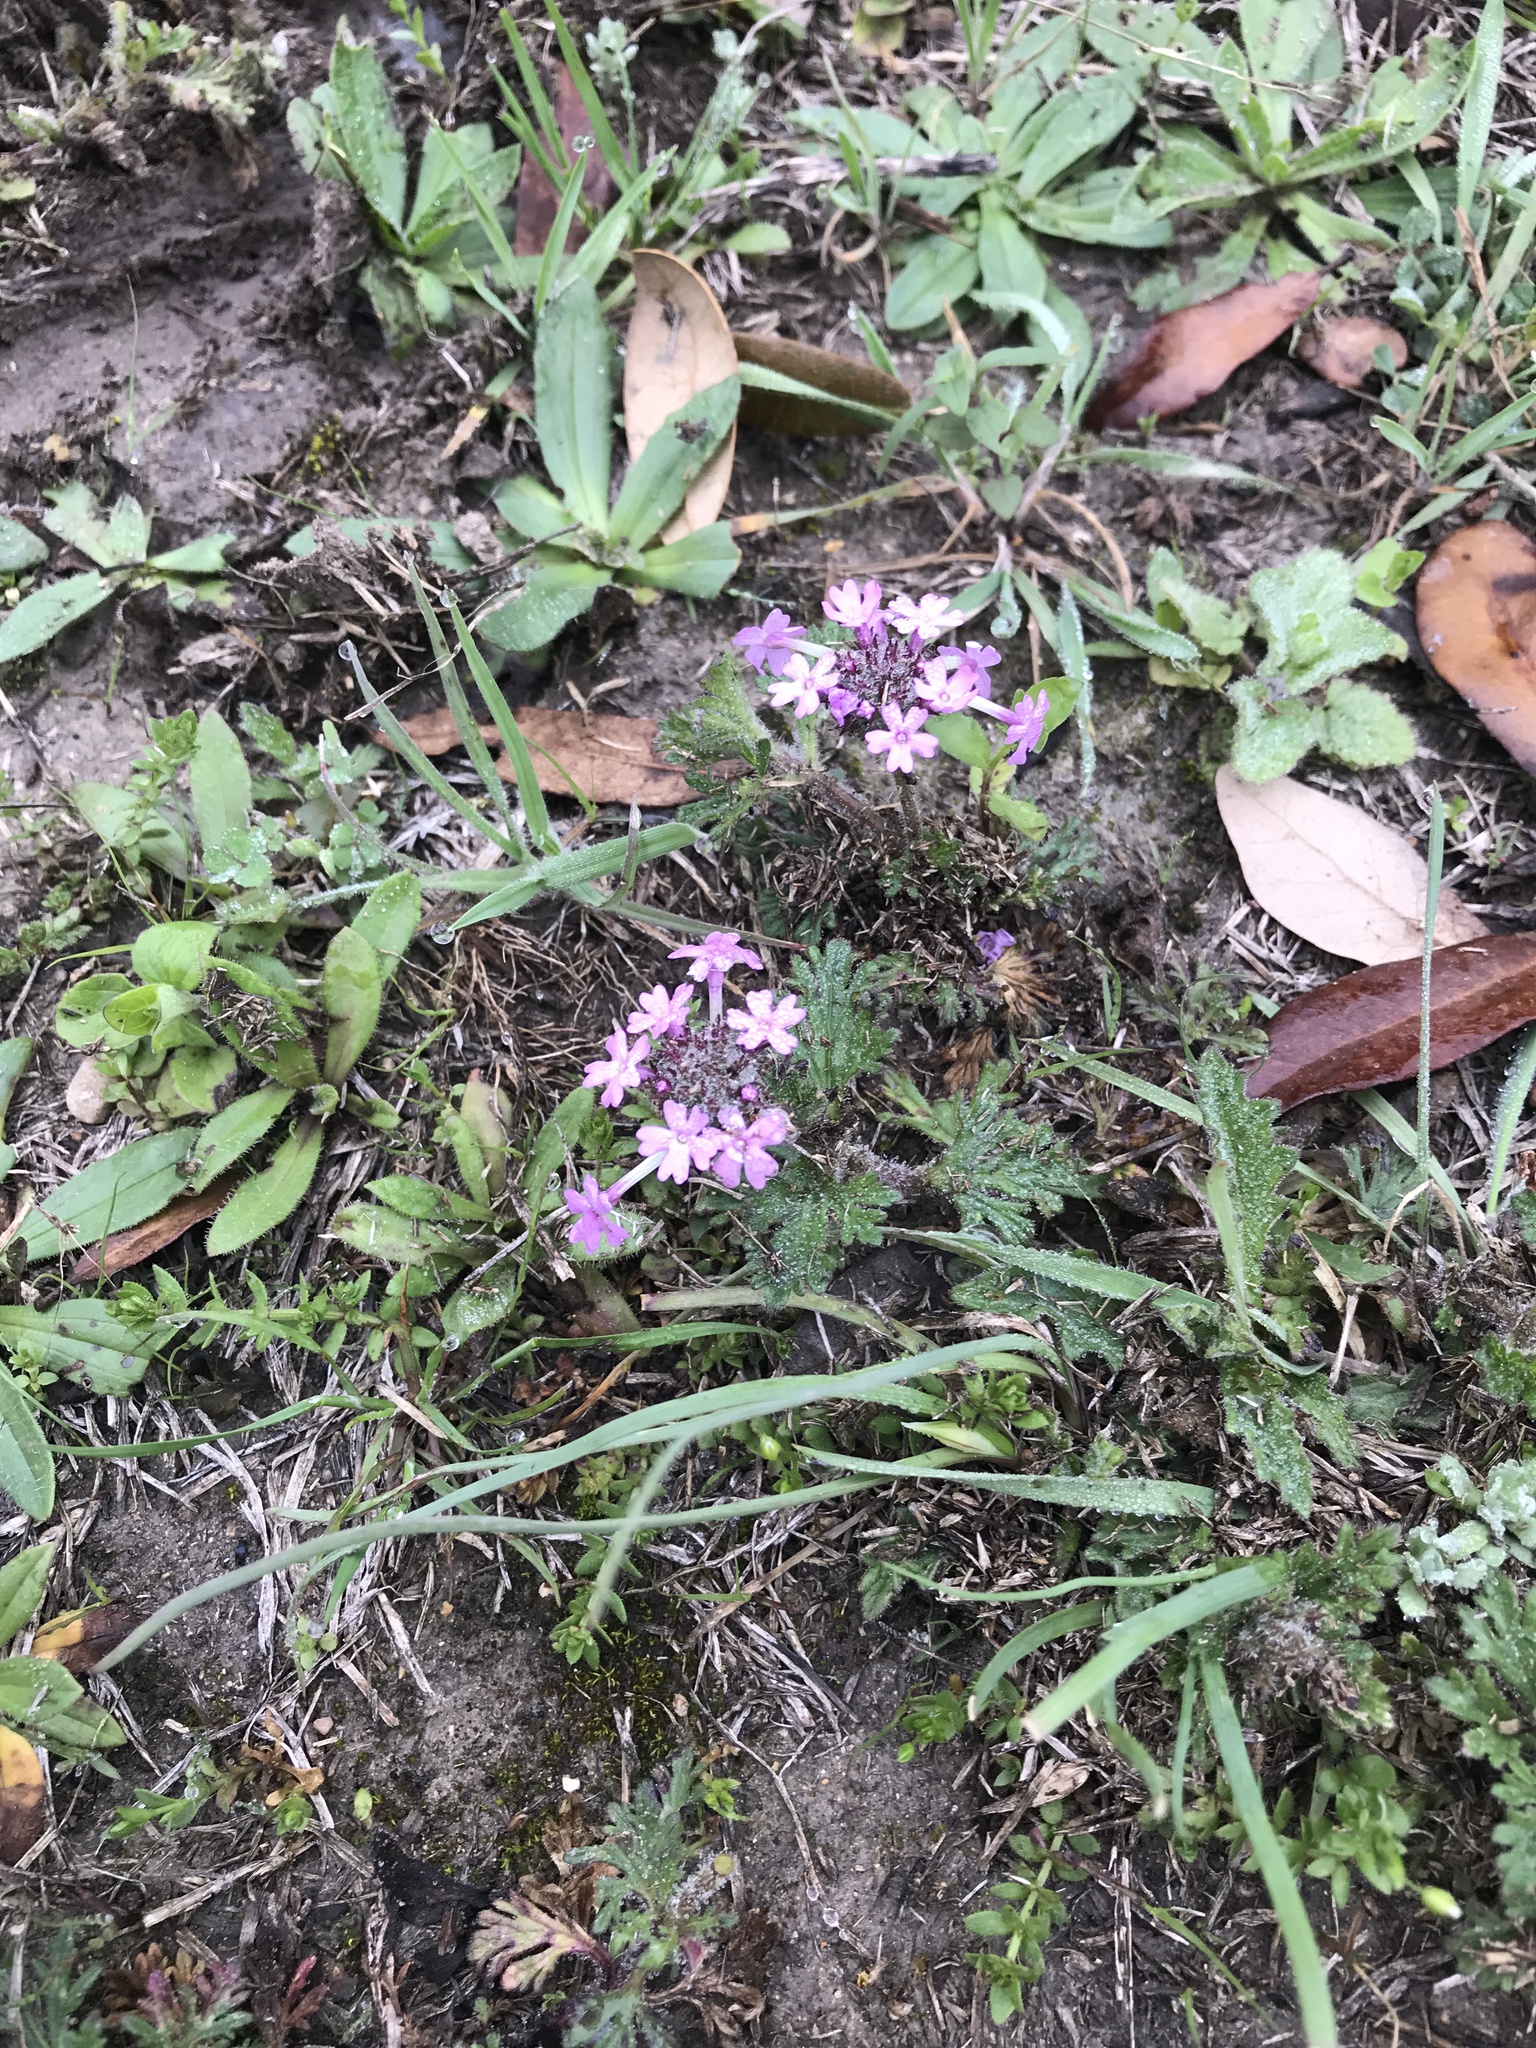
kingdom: Plantae
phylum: Tracheophyta
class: Magnoliopsida
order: Lamiales
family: Verbenaceae
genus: Verbena
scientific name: Verbena pumila
